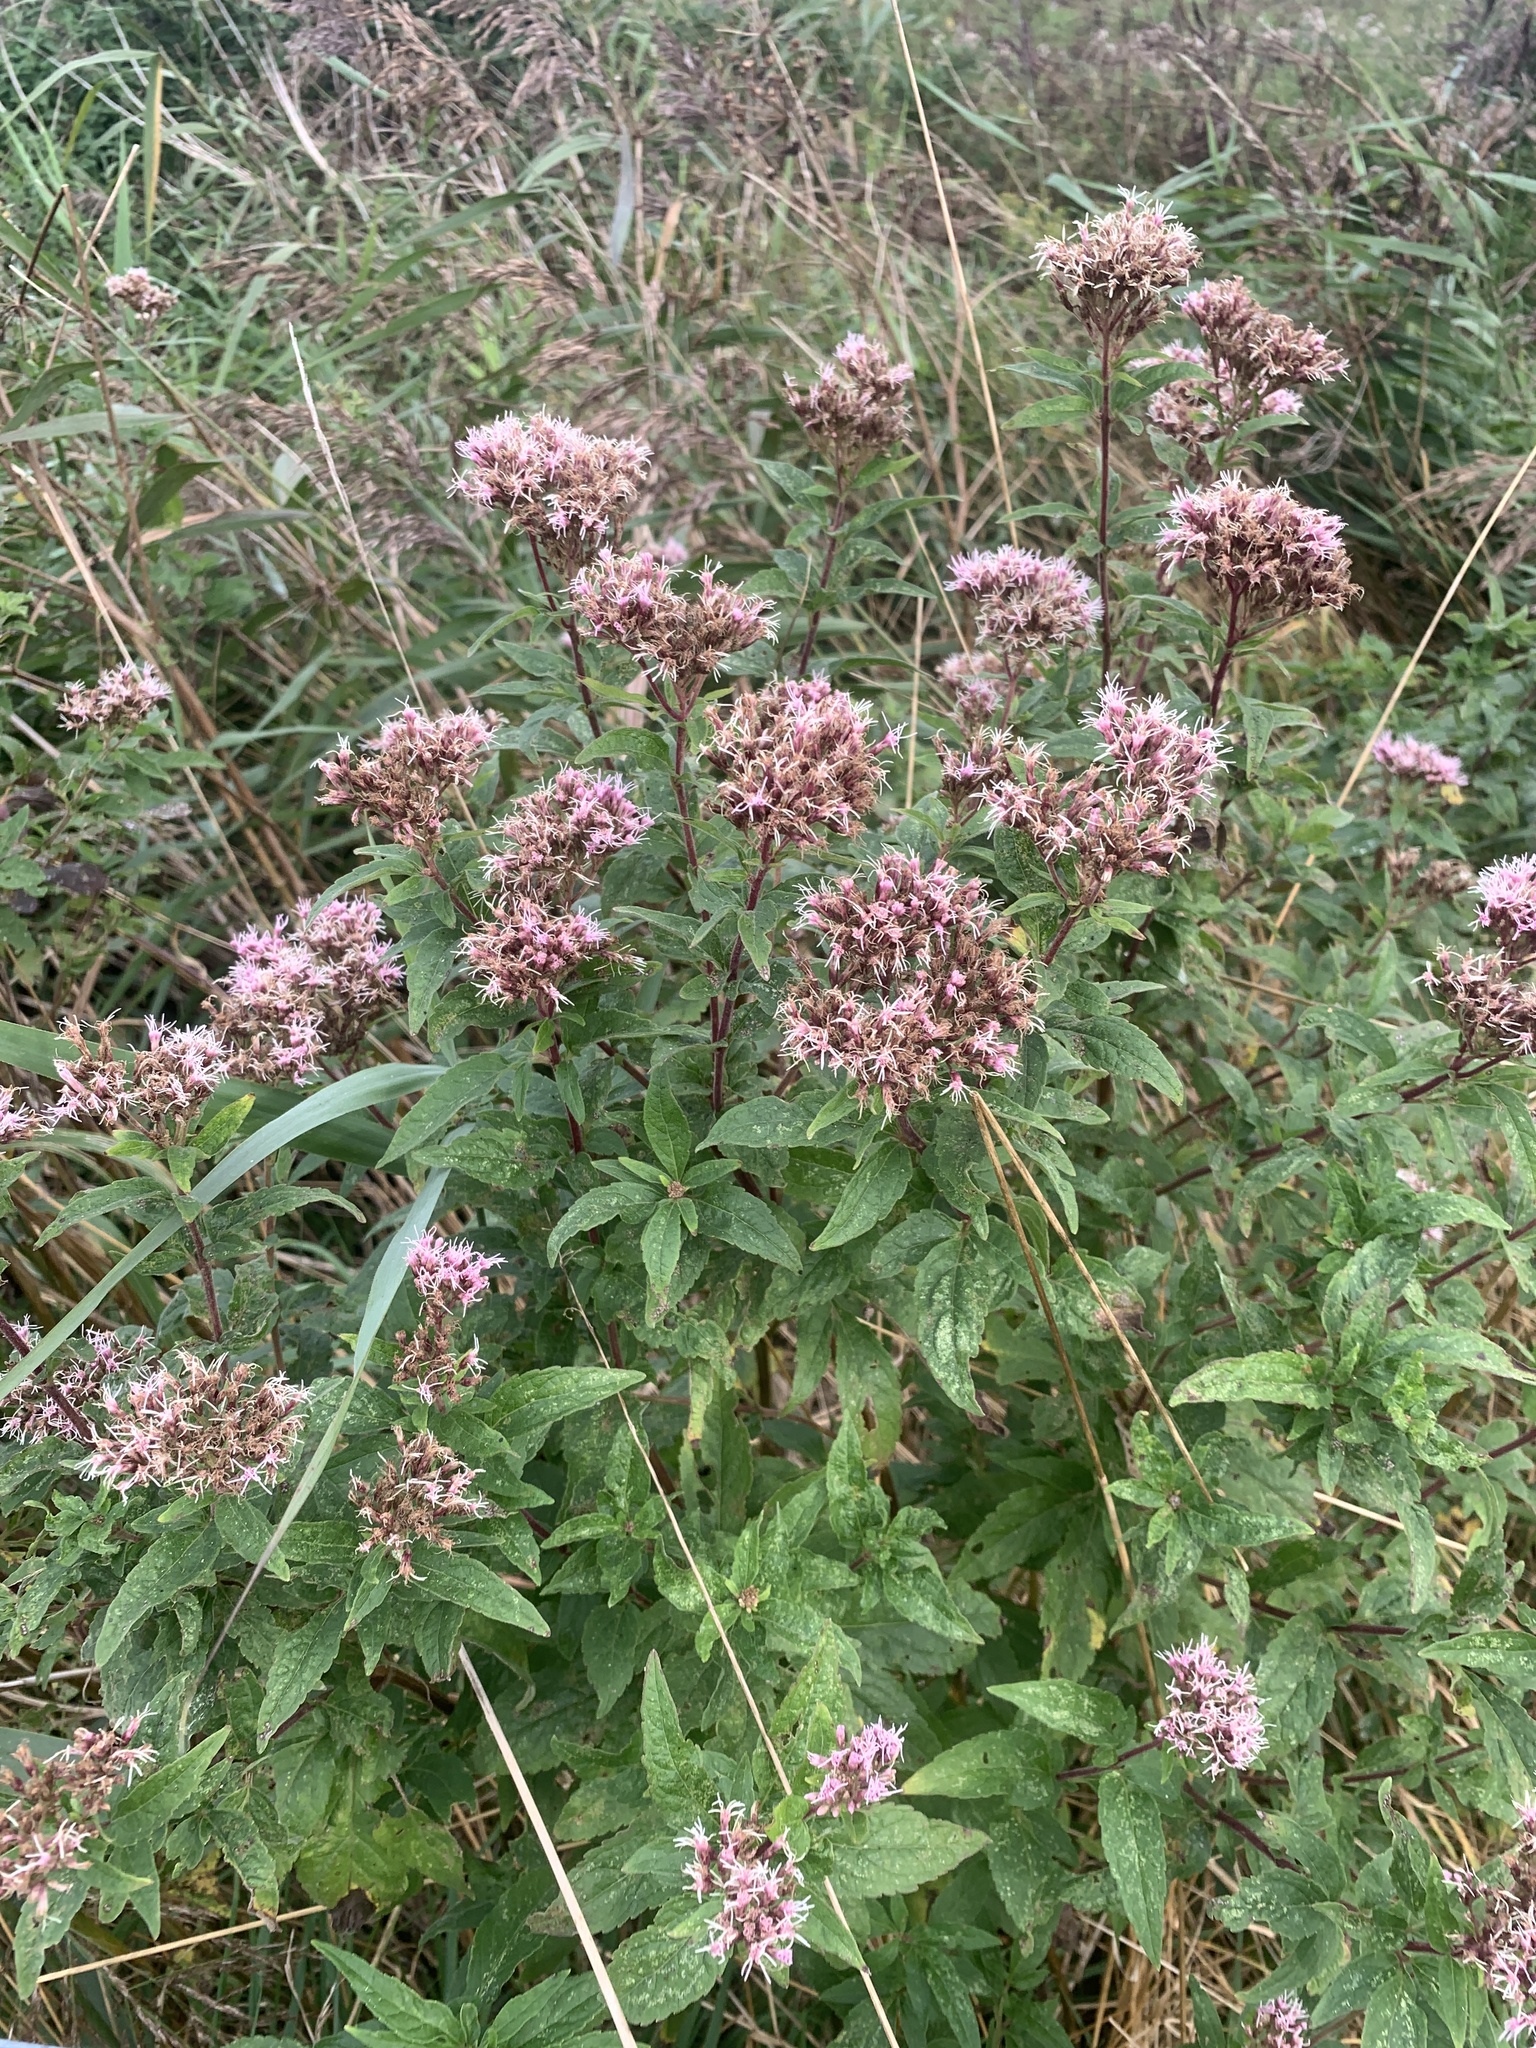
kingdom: Plantae
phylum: Tracheophyta
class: Magnoliopsida
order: Asterales
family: Asteraceae
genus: Eupatorium
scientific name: Eupatorium cannabinum
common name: Hemp-agrimony
